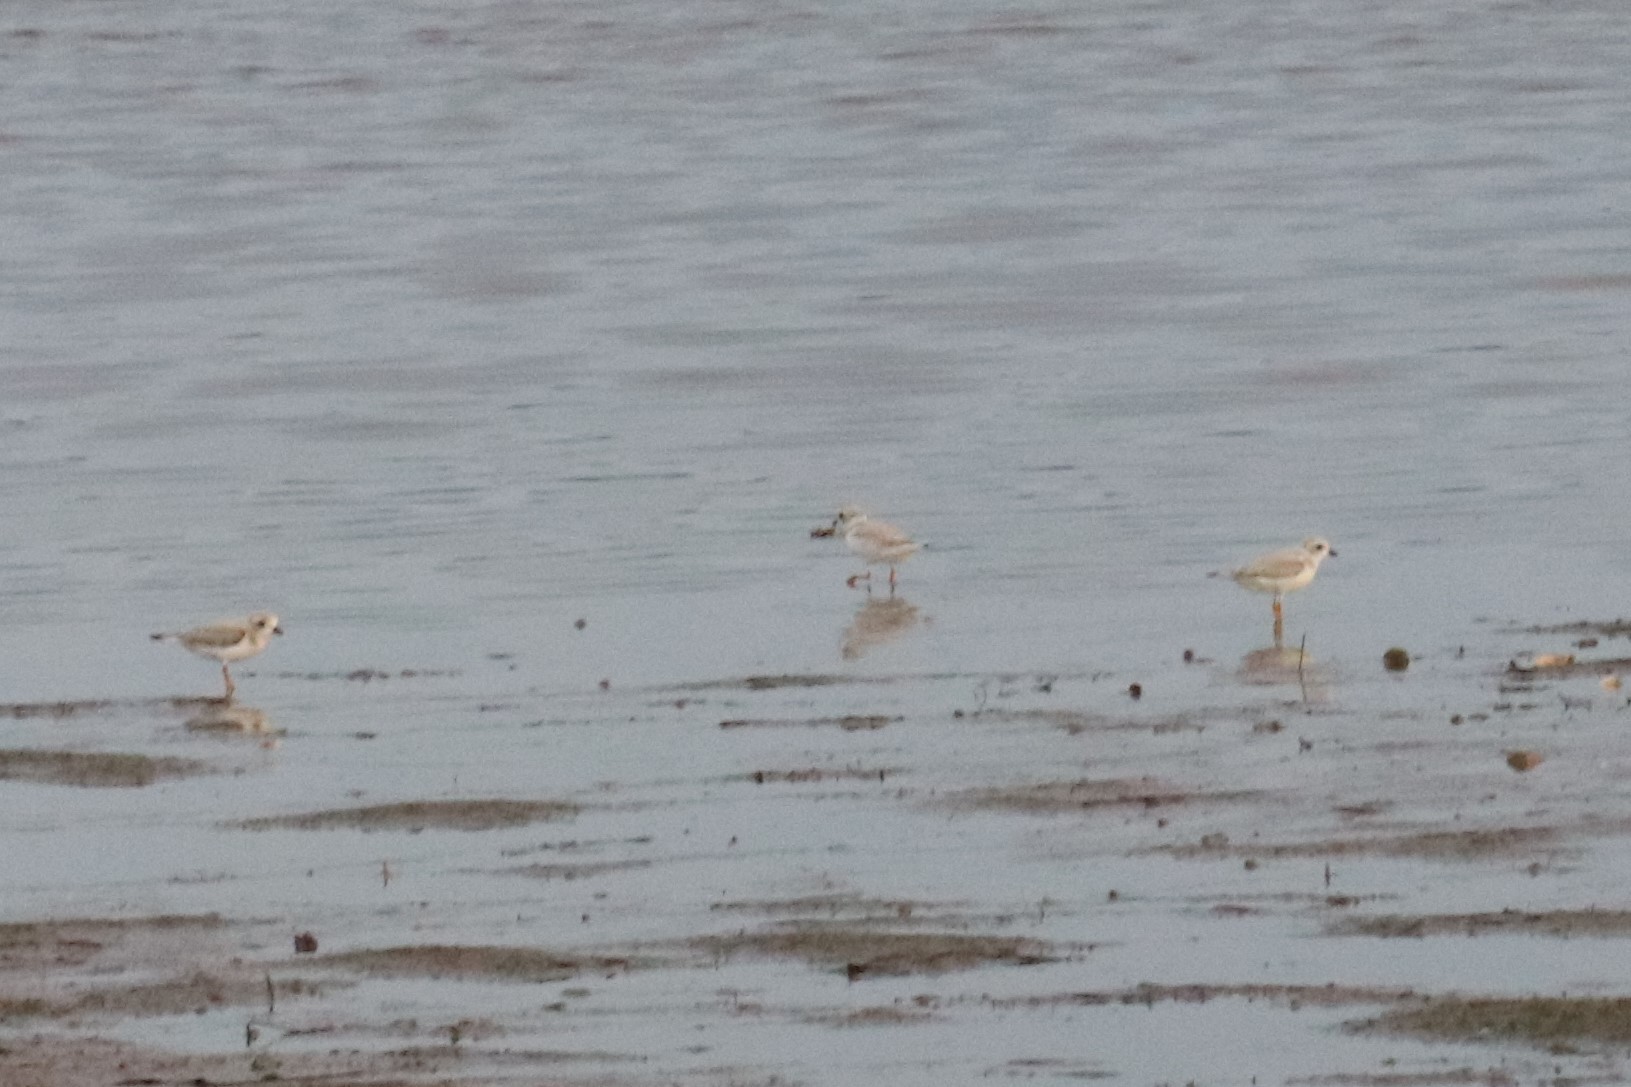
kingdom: Animalia
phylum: Chordata
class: Aves
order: Charadriiformes
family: Charadriidae
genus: Charadrius
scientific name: Charadrius melodus
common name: Piping plover
